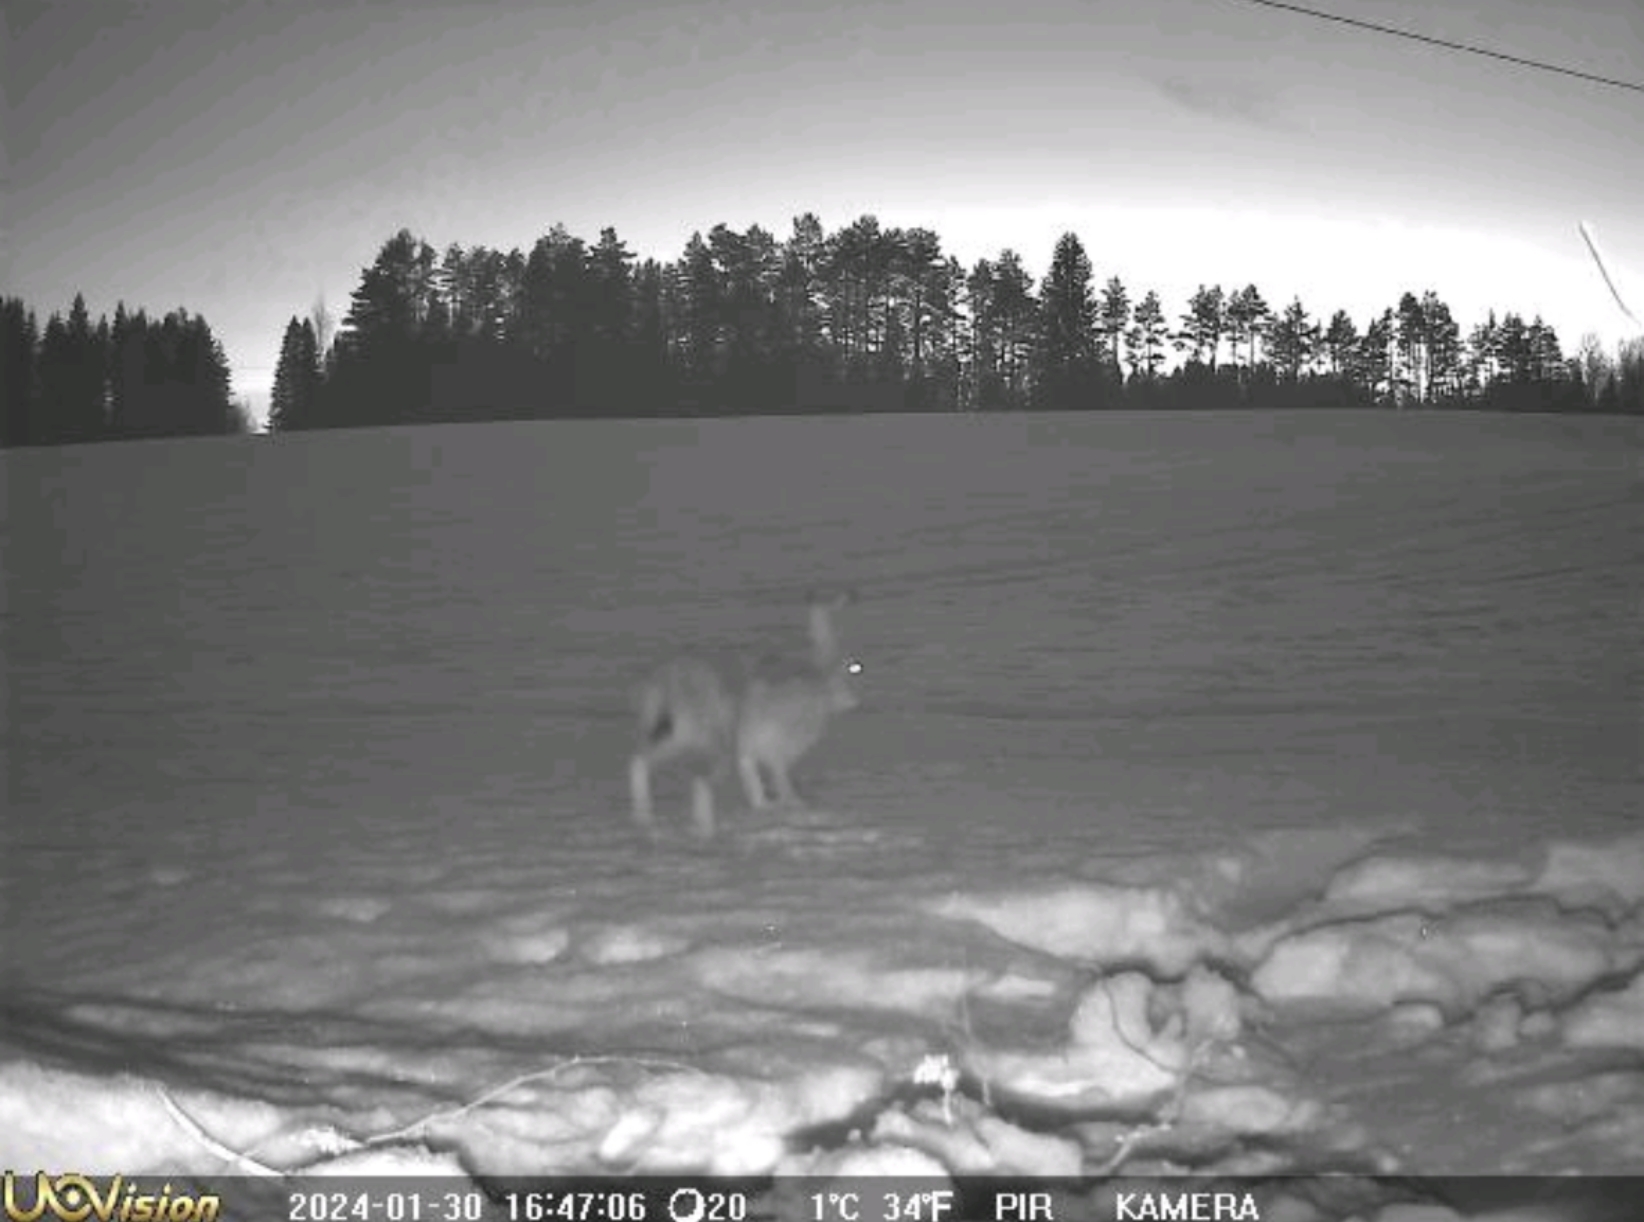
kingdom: Animalia
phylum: Chordata
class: Mammalia
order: Lagomorpha
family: Leporidae
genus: Lepus
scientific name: Lepus europaeus
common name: European hare
